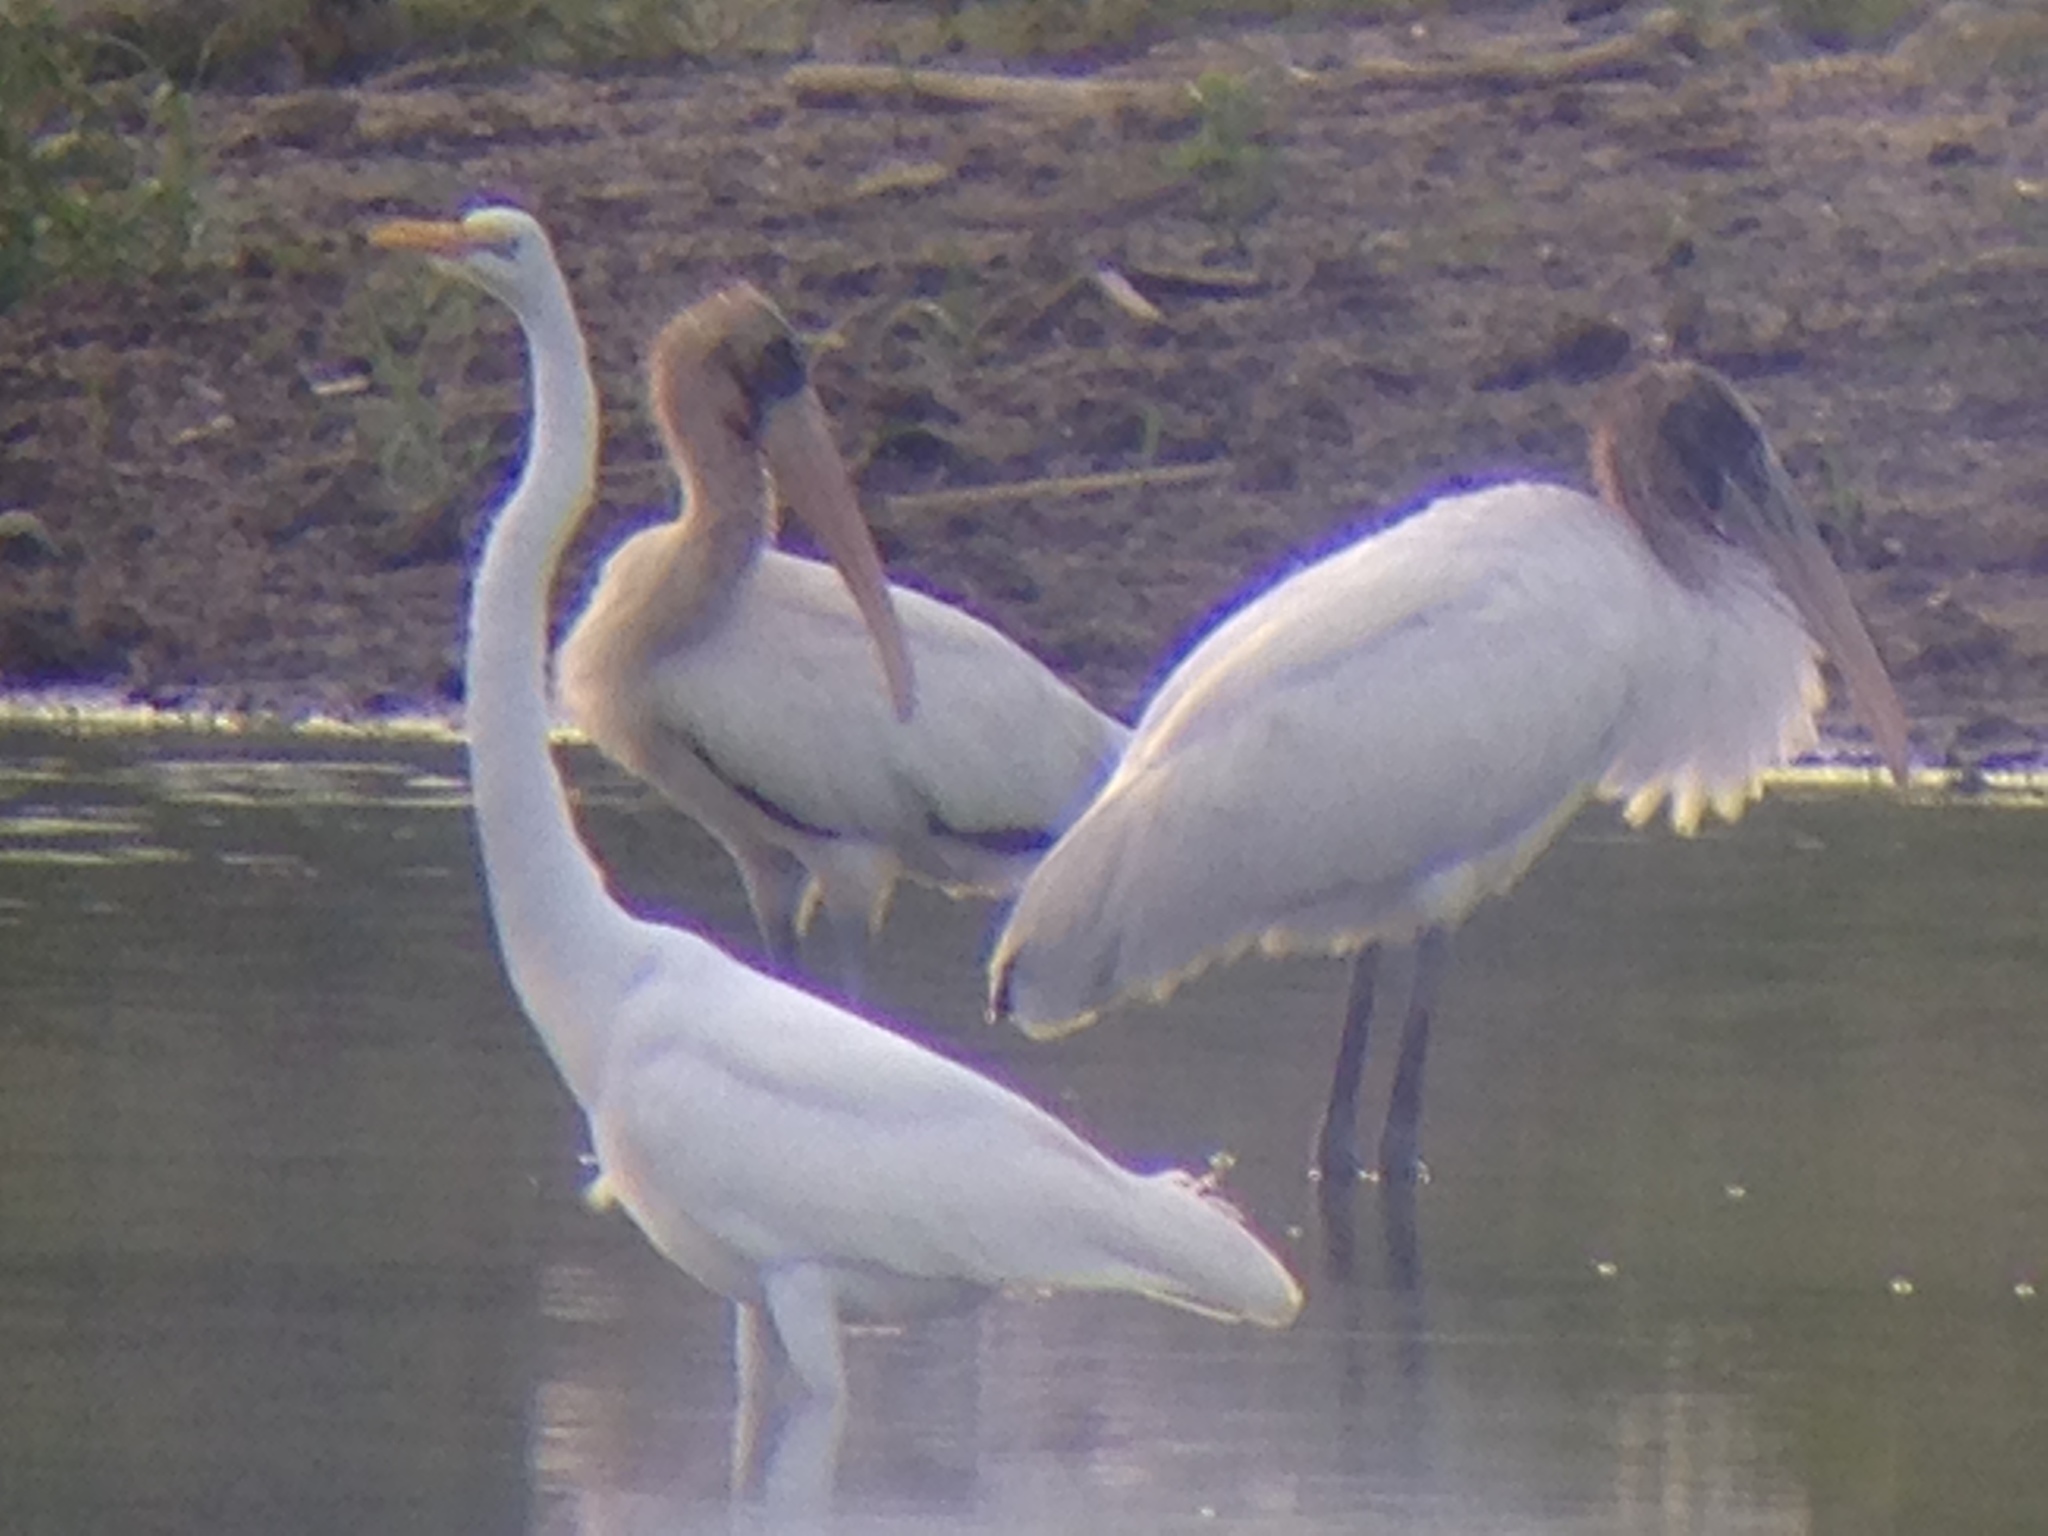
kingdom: Animalia
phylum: Chordata
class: Aves
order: Ciconiiformes
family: Ciconiidae
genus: Mycteria
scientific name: Mycteria americana
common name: Wood stork
